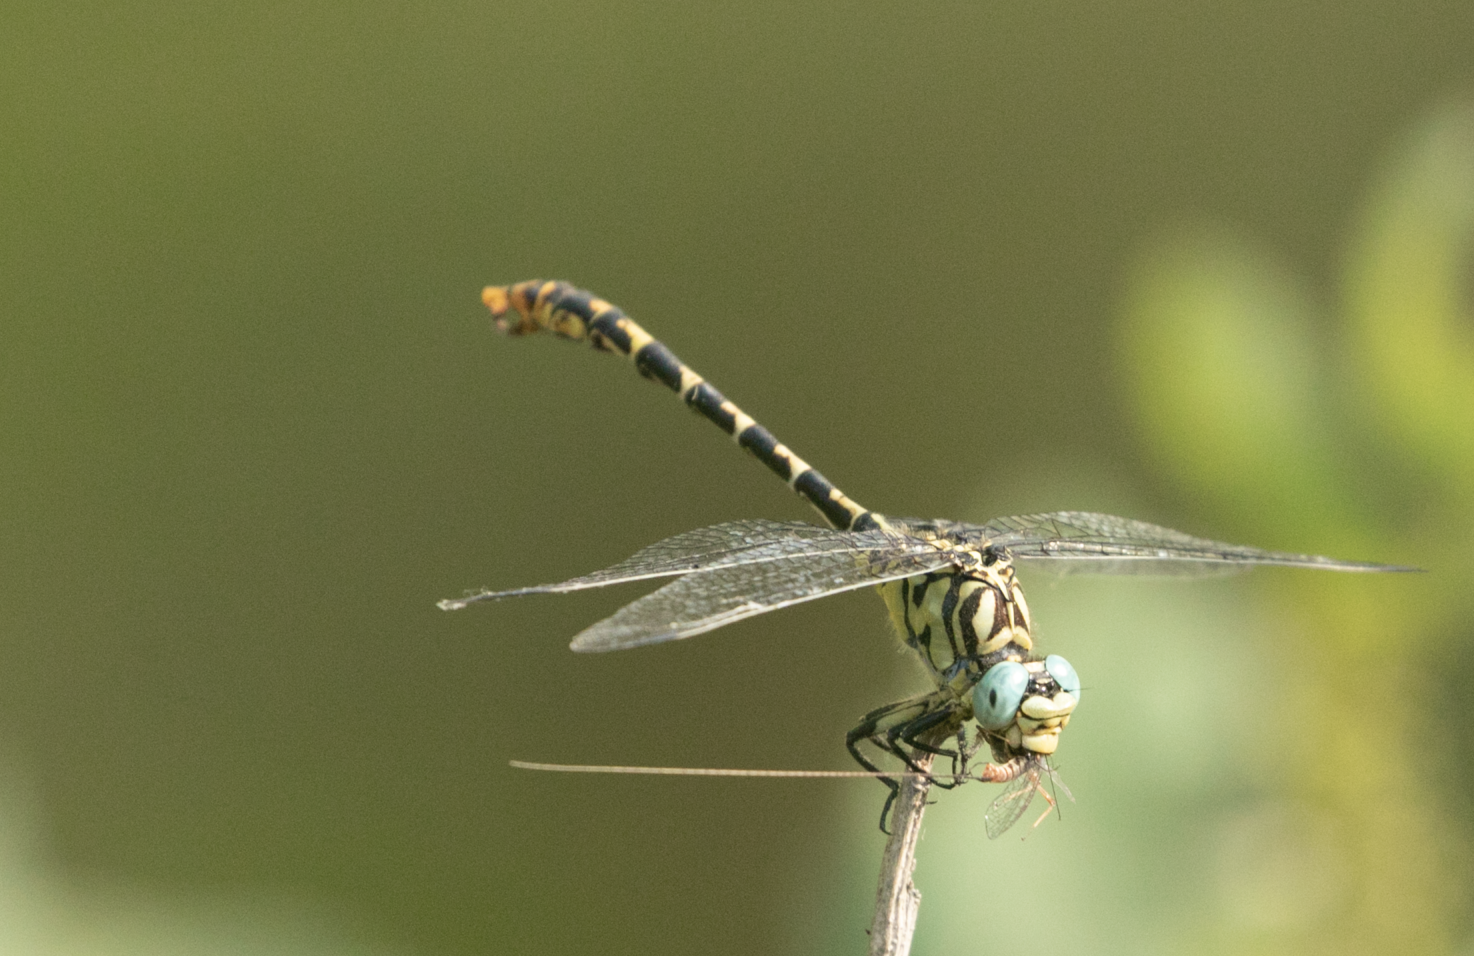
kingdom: Animalia
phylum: Arthropoda
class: Insecta
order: Odonata
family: Gomphidae
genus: Onychogomphus
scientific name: Onychogomphus forcipatus
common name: Small pincertail
